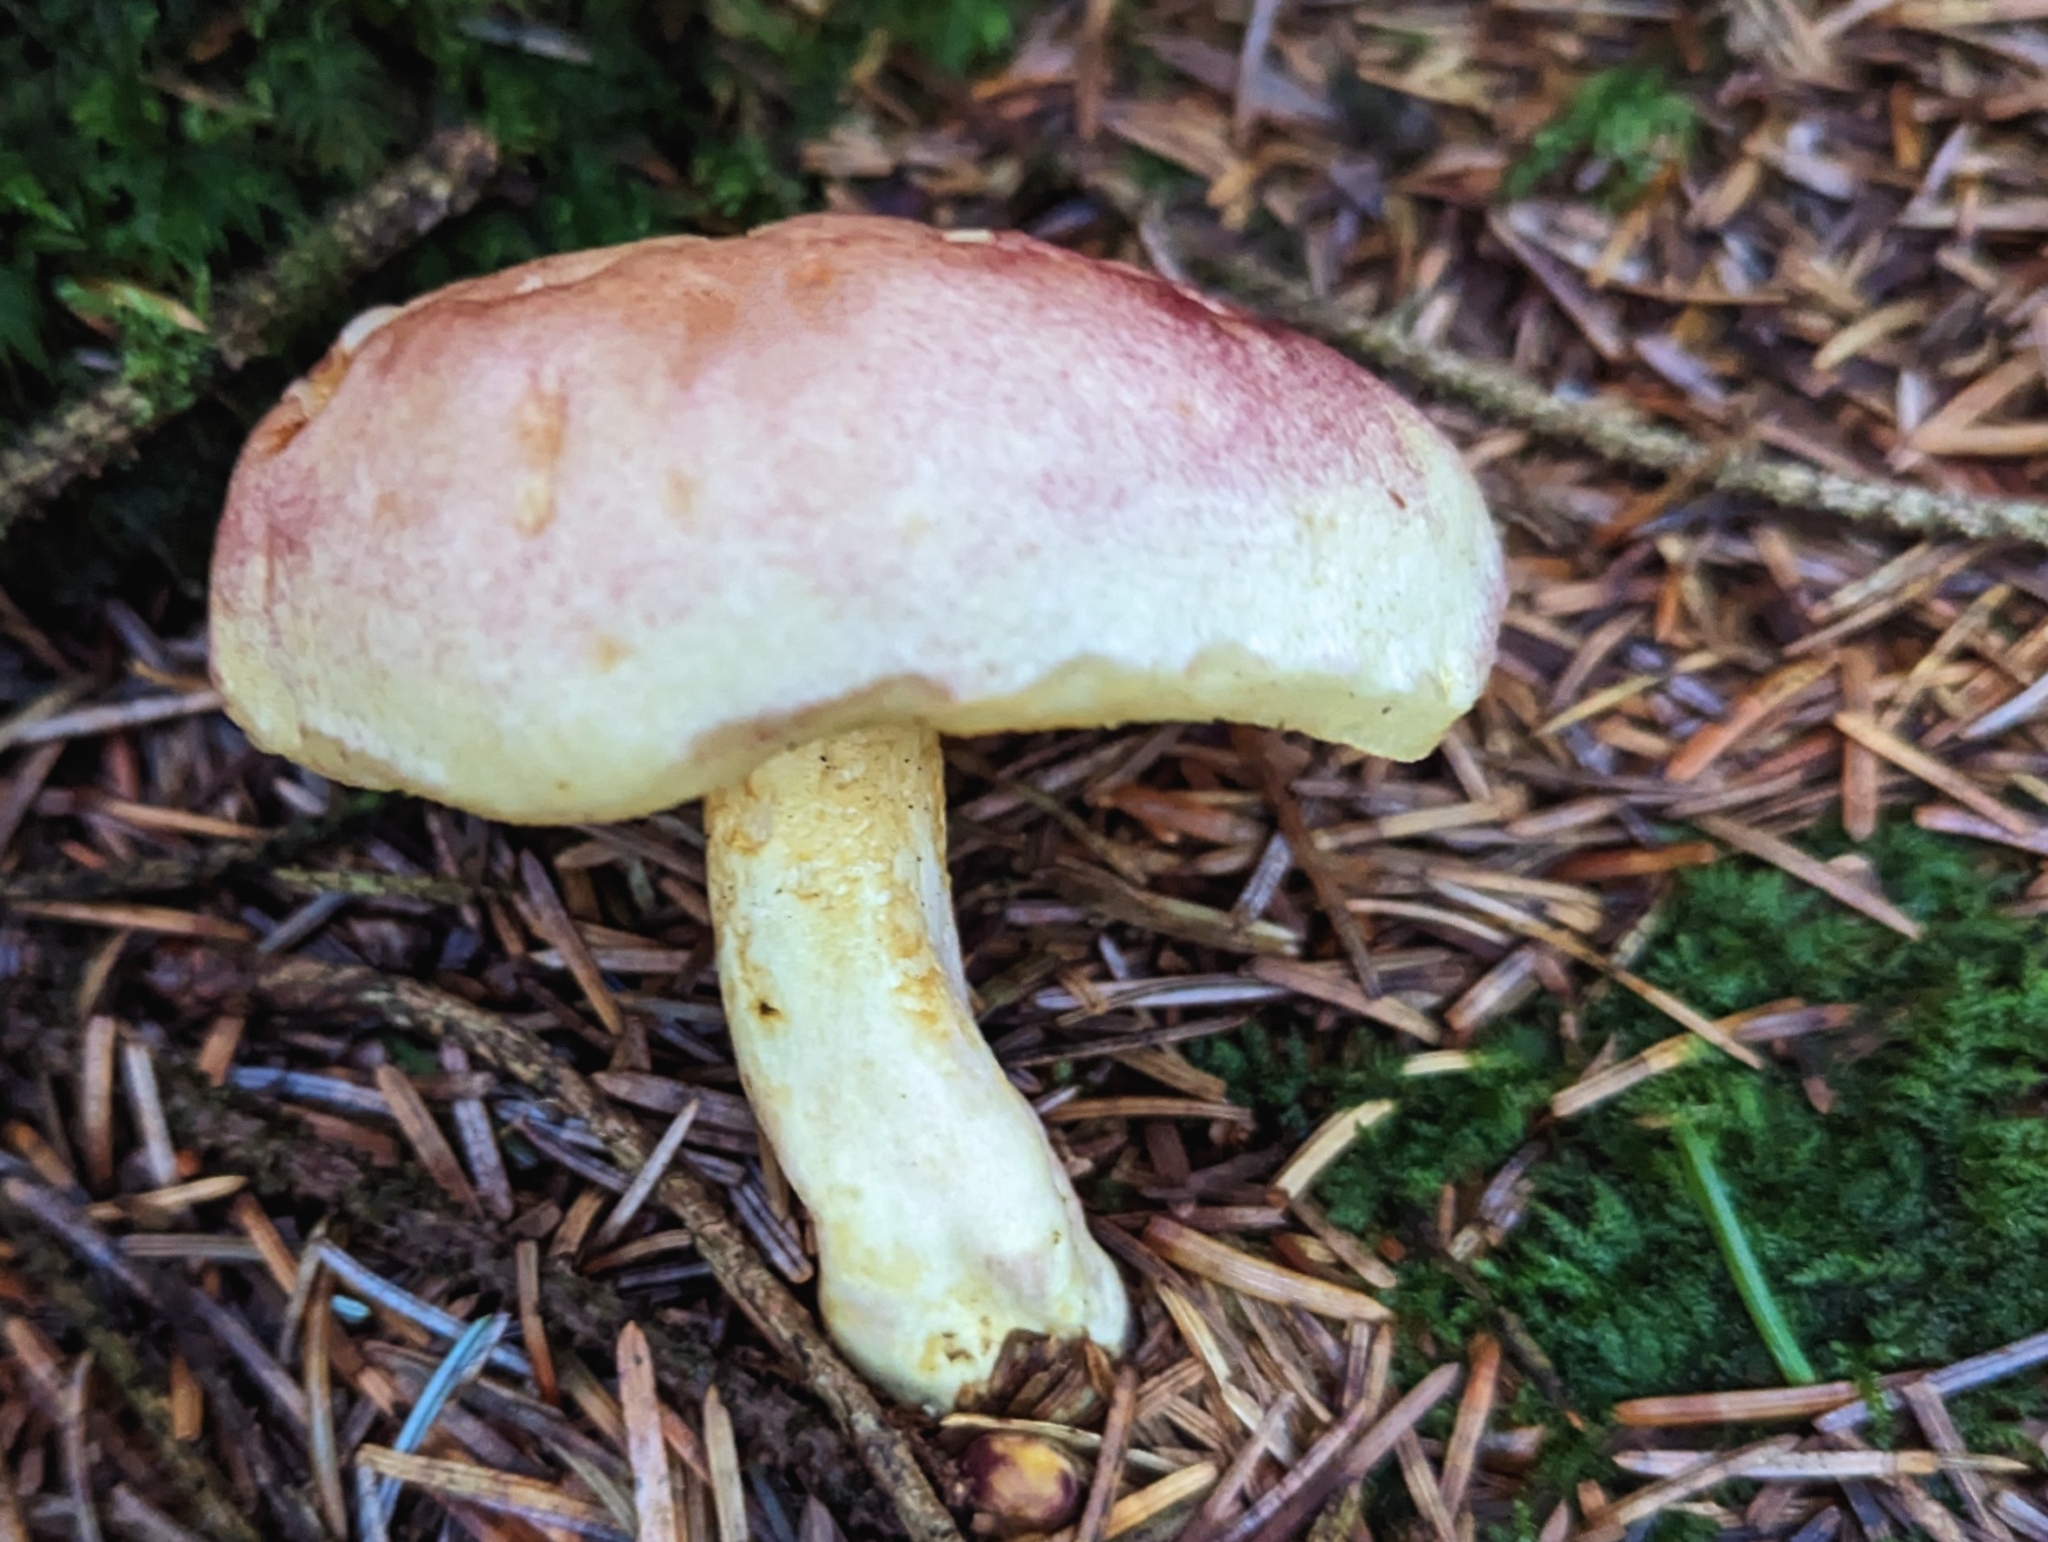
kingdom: Fungi
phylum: Basidiomycota
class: Agaricomycetes
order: Agaricales
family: Tricholomataceae
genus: Tricholomopsis
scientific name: Tricholomopsis rutilans
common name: Plums and custard
